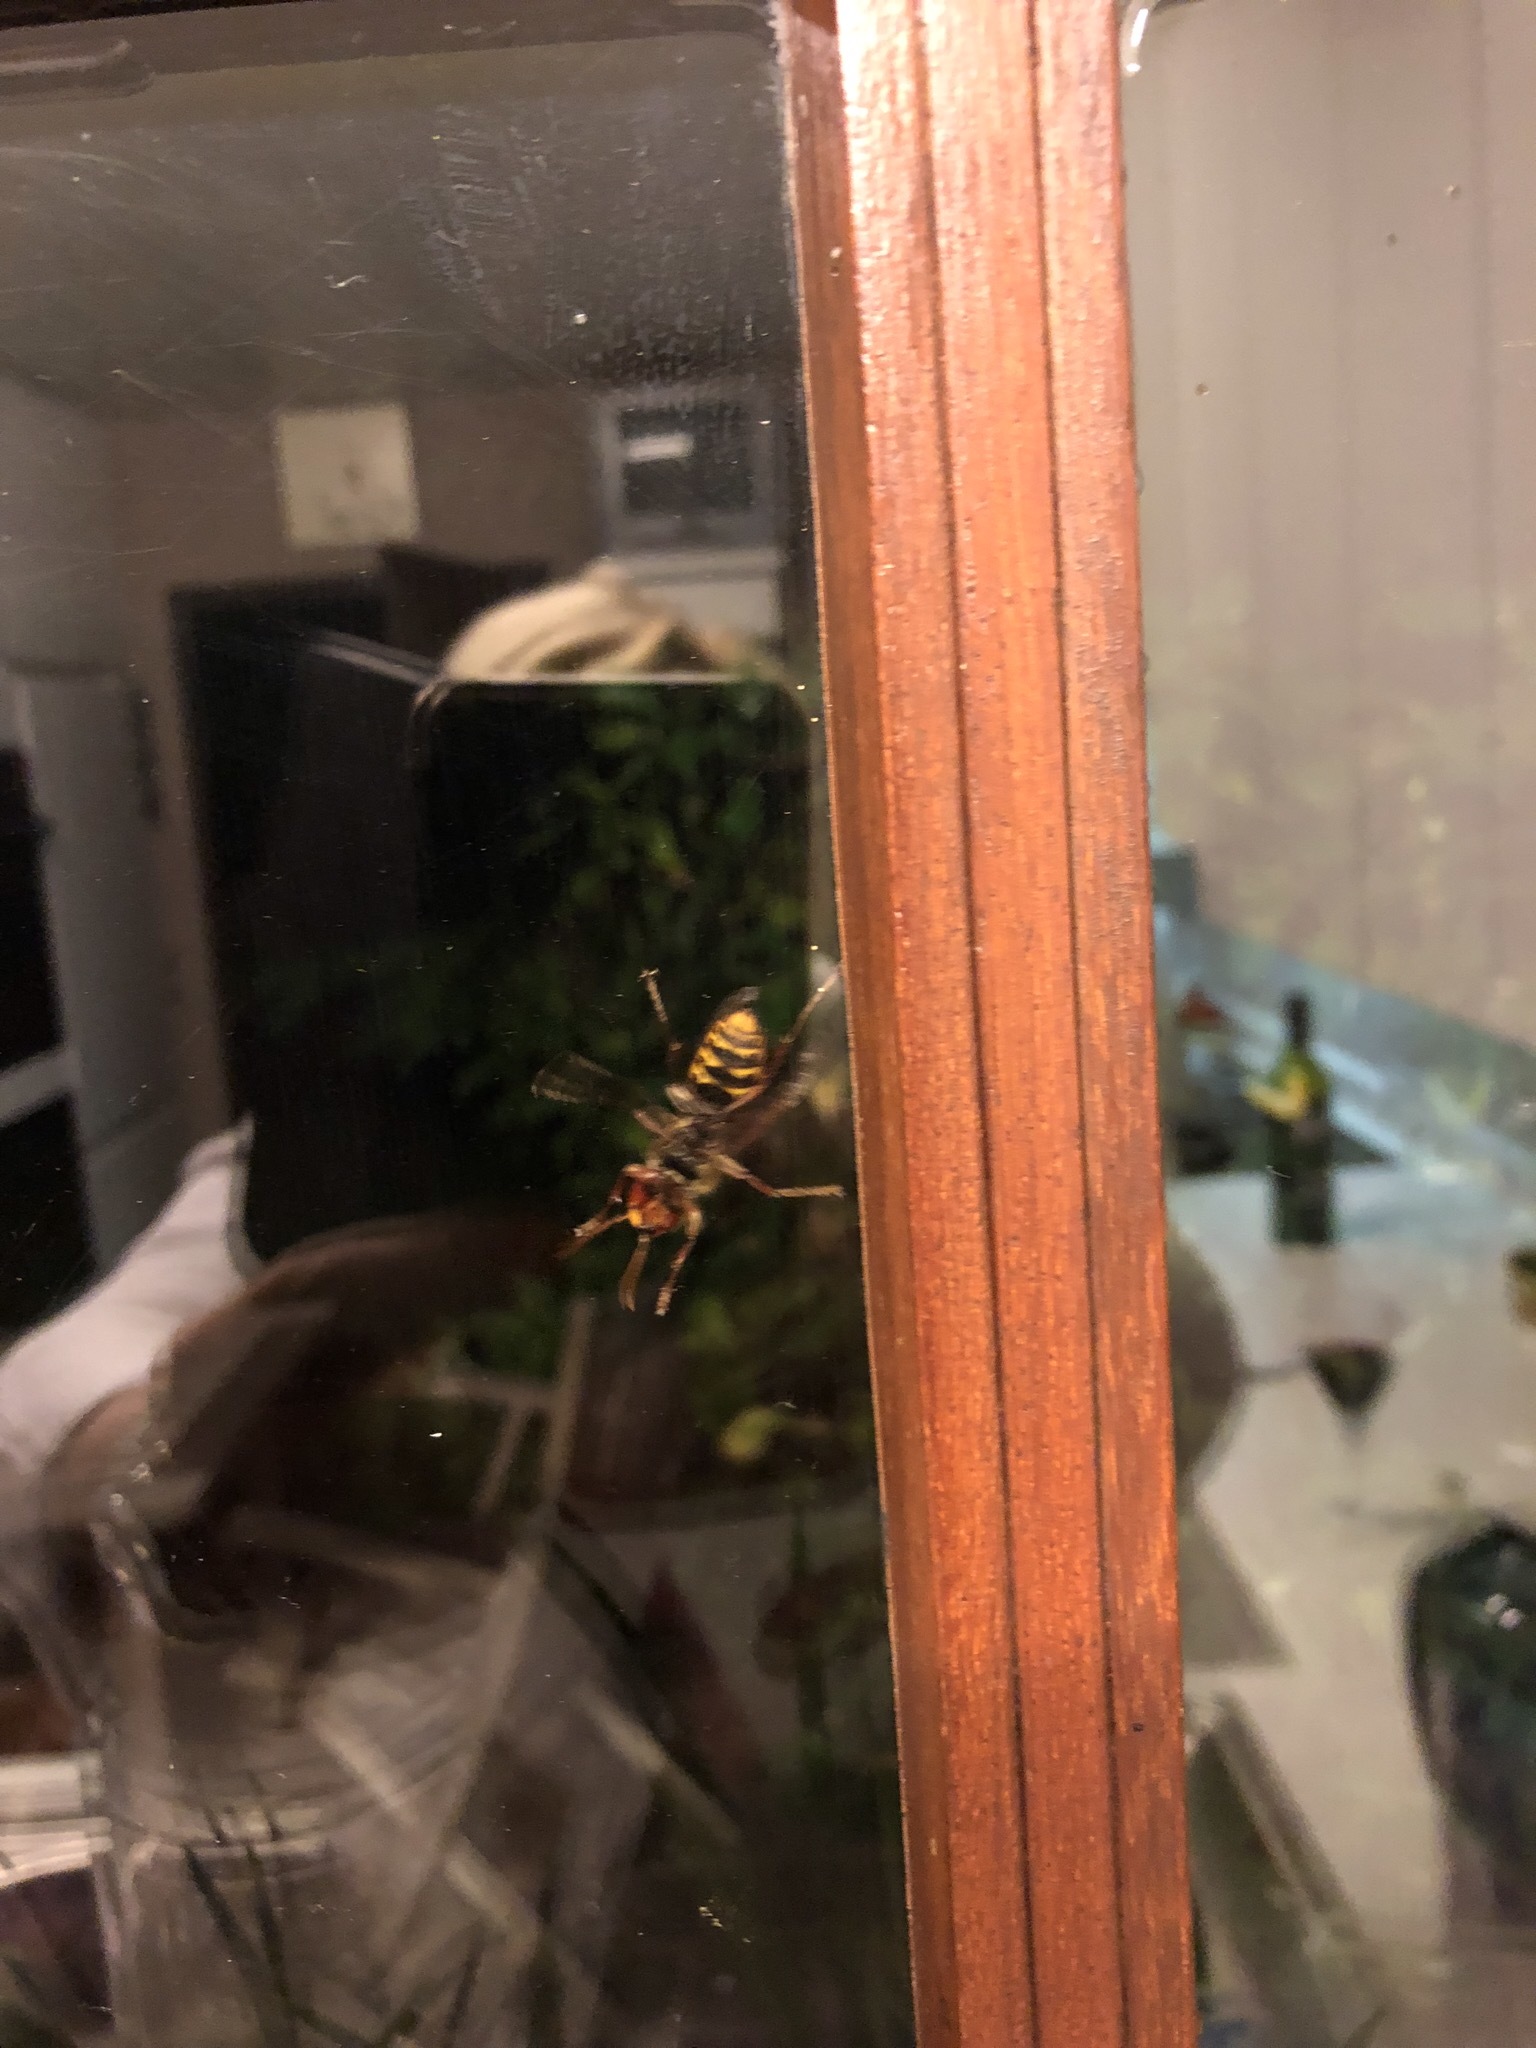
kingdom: Animalia
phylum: Arthropoda
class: Insecta
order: Hymenoptera
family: Vespidae
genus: Vespa
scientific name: Vespa crabro
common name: Hornet
